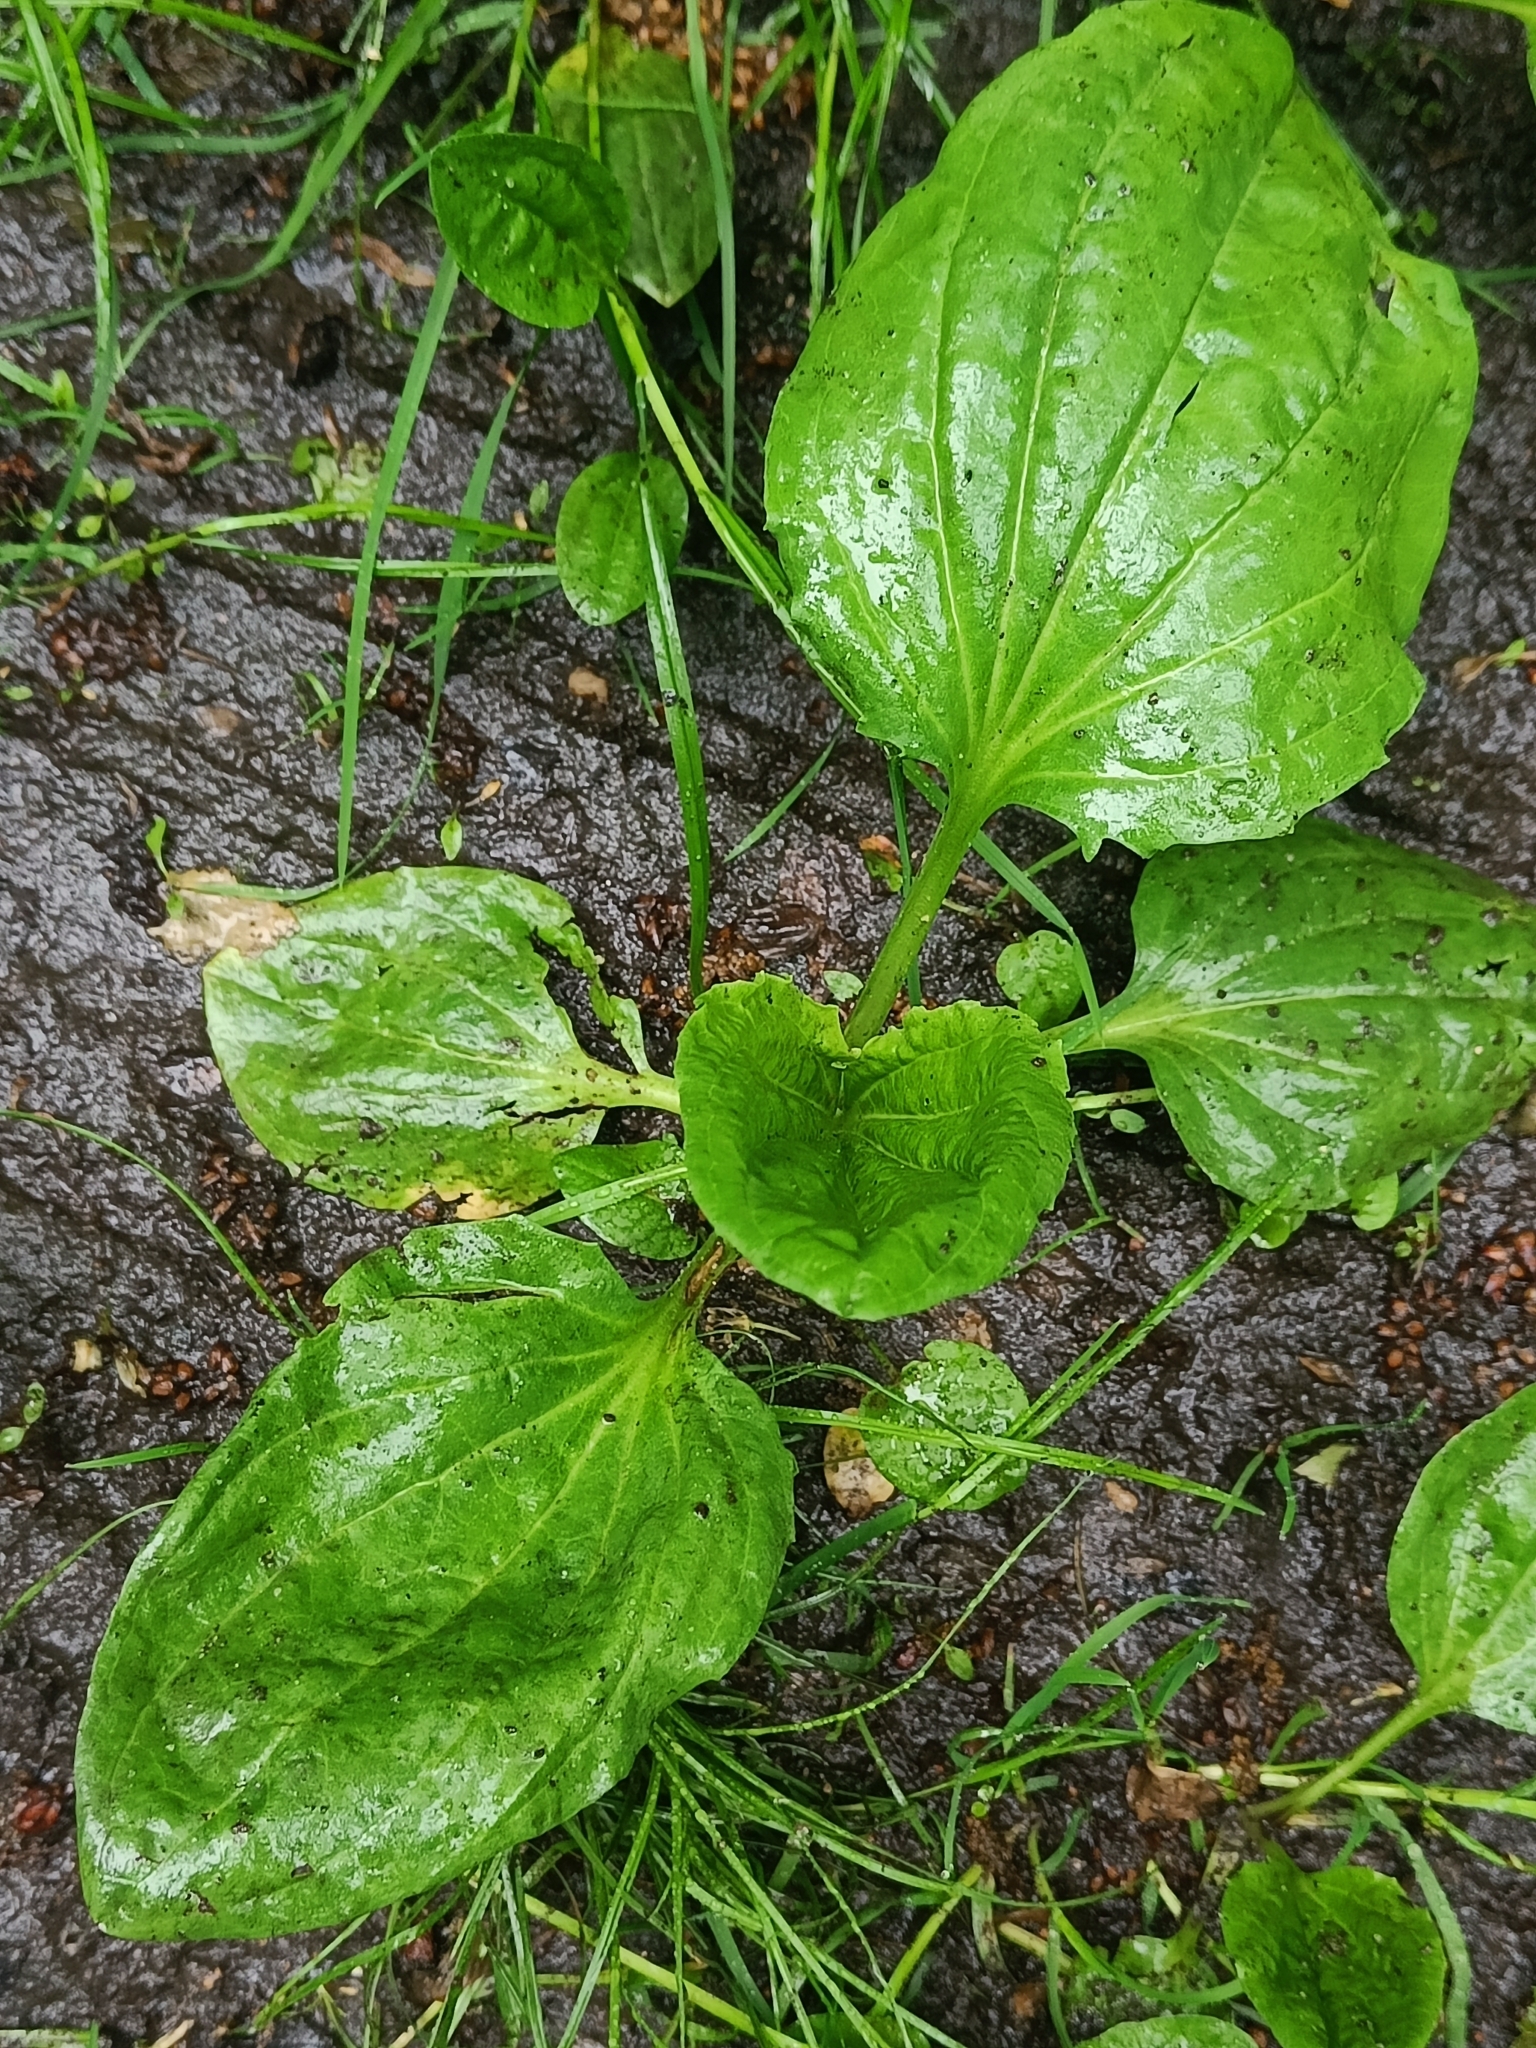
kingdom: Plantae
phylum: Tracheophyta
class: Magnoliopsida
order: Lamiales
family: Plantaginaceae
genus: Plantago
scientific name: Plantago major
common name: Common plantain
